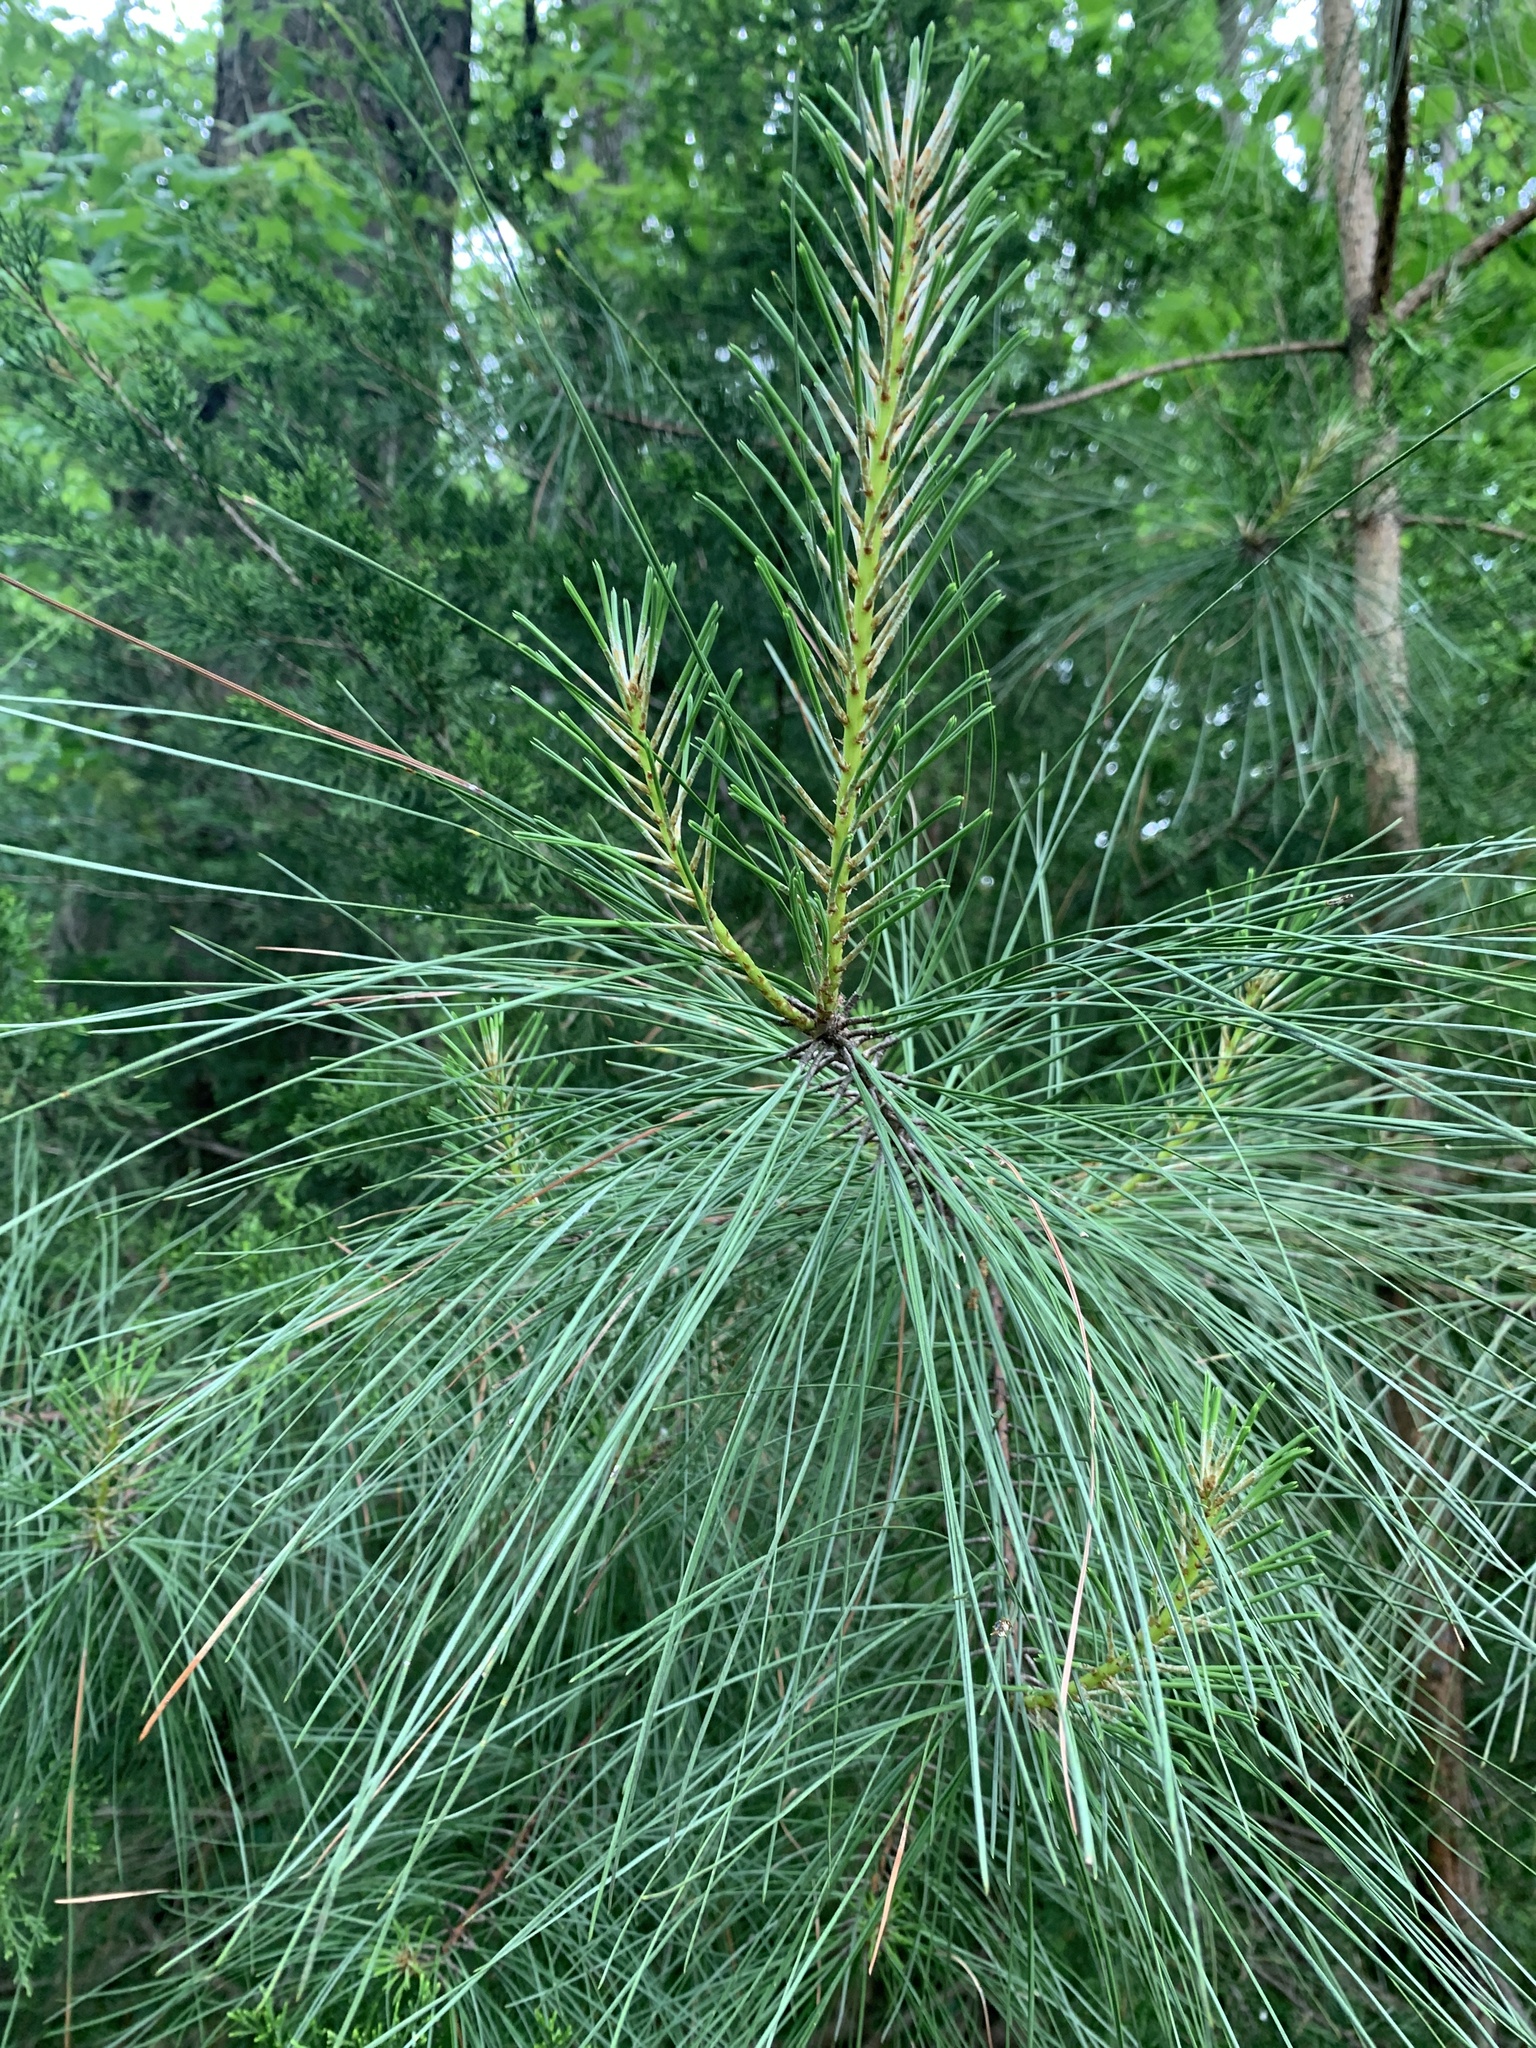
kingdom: Plantae
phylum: Tracheophyta
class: Pinopsida
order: Pinales
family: Pinaceae
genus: Pinus
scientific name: Pinus taeda
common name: Loblolly pine
